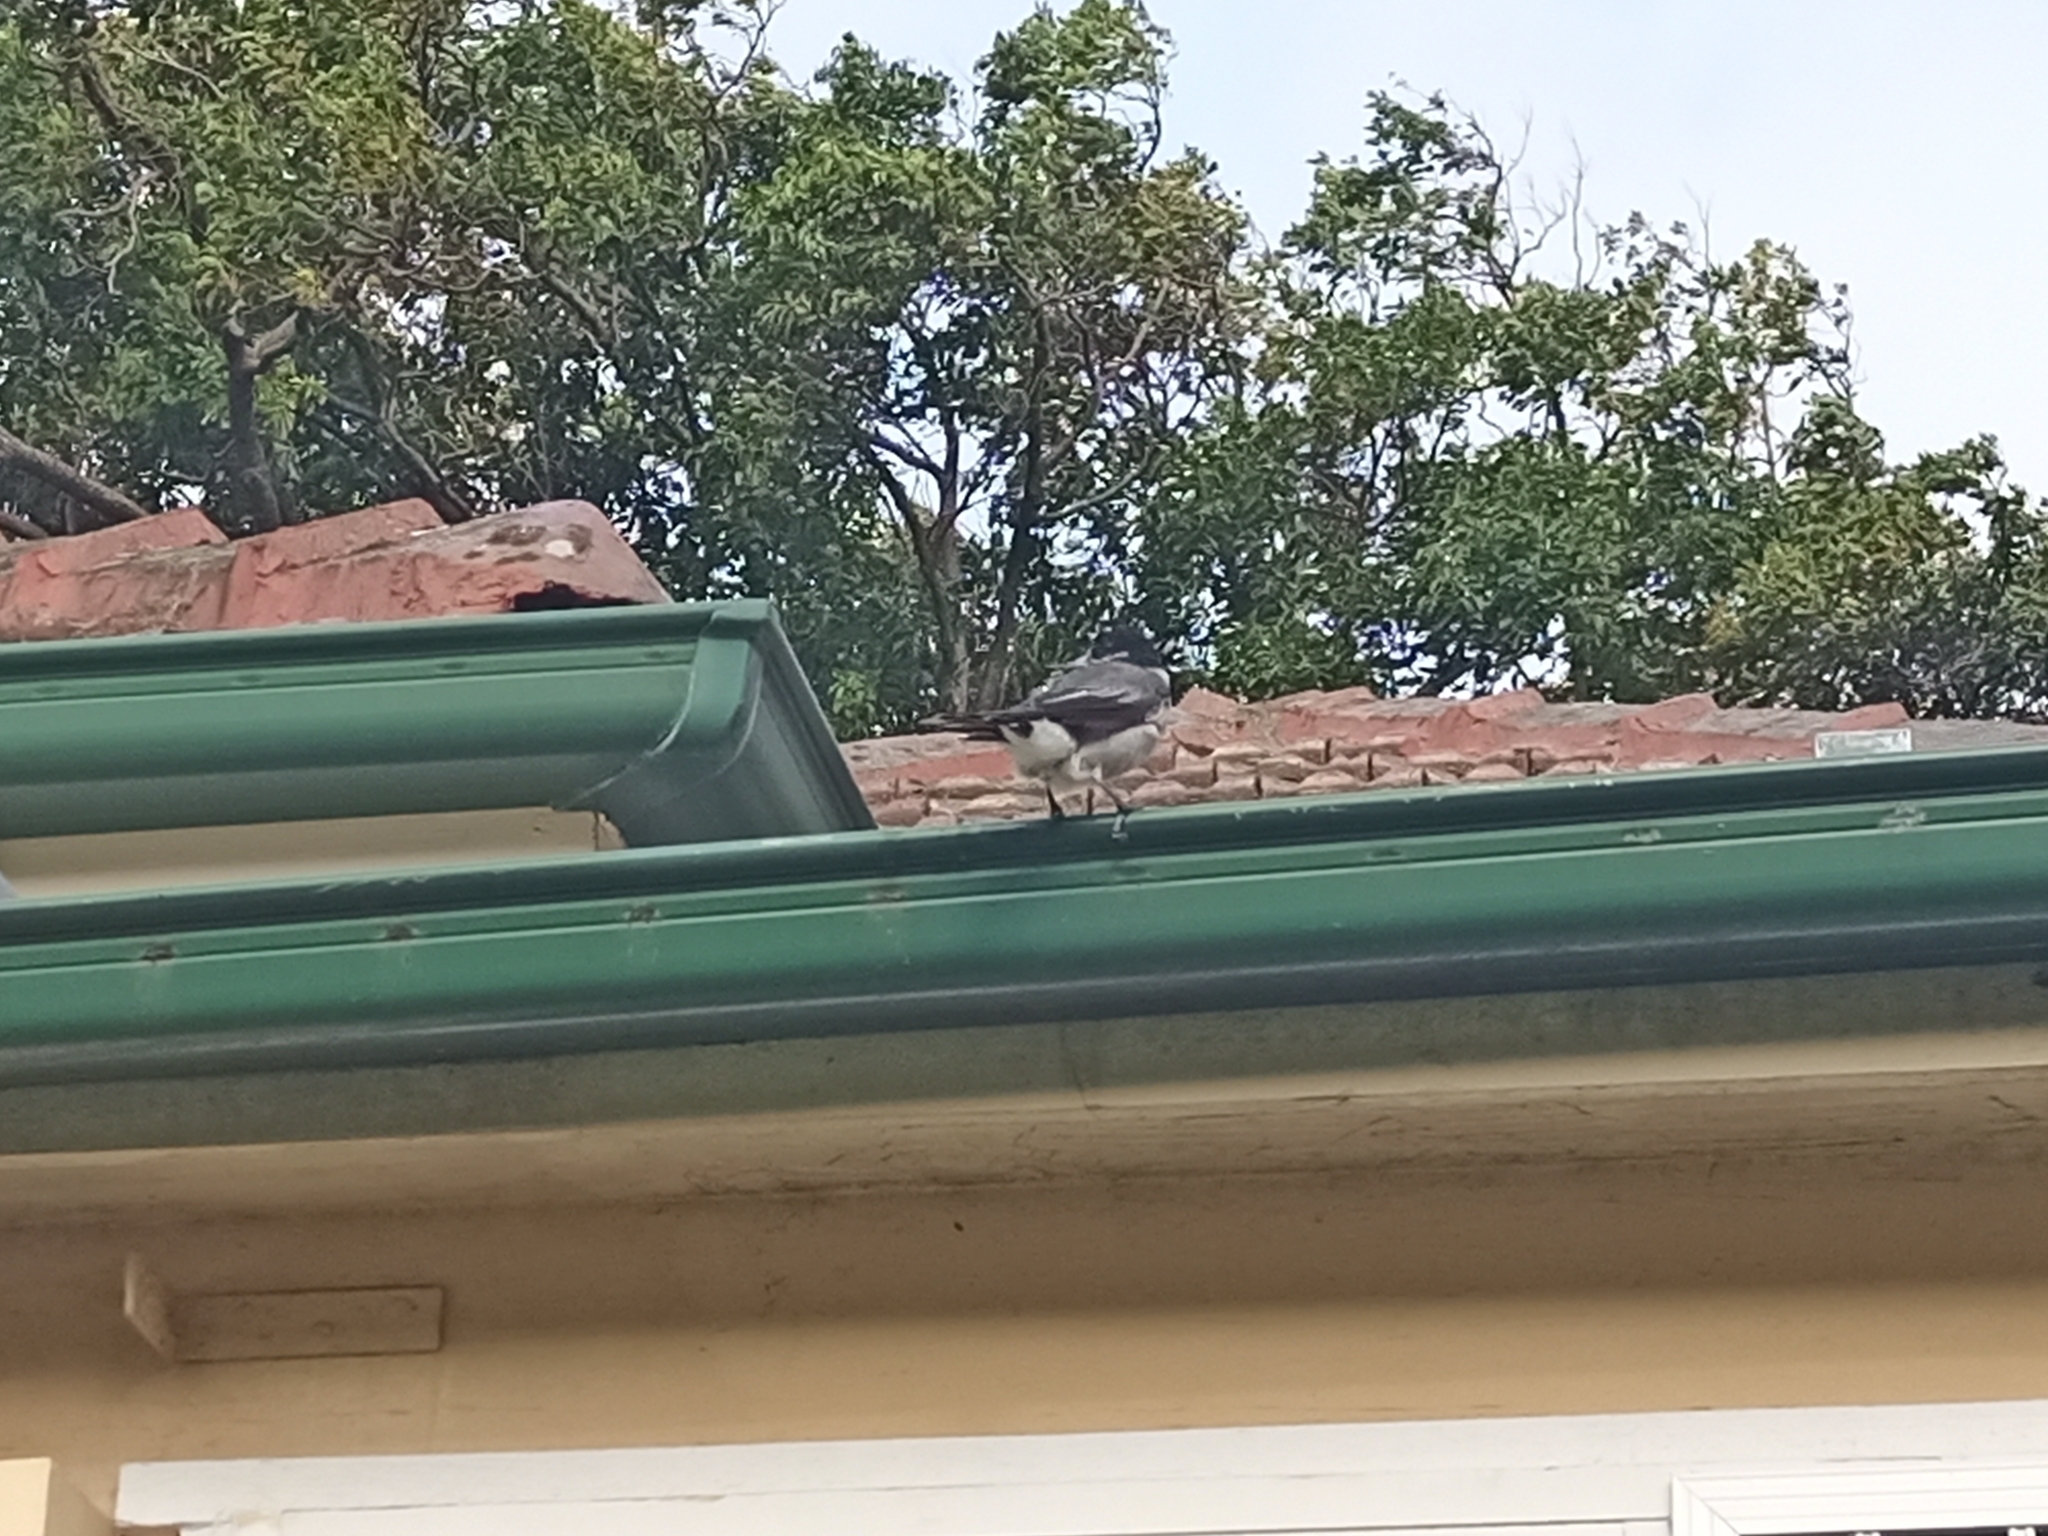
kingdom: Animalia
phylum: Chordata
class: Aves
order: Passeriformes
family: Cracticidae
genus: Cracticus
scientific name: Cracticus torquatus
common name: Grey butcherbird
